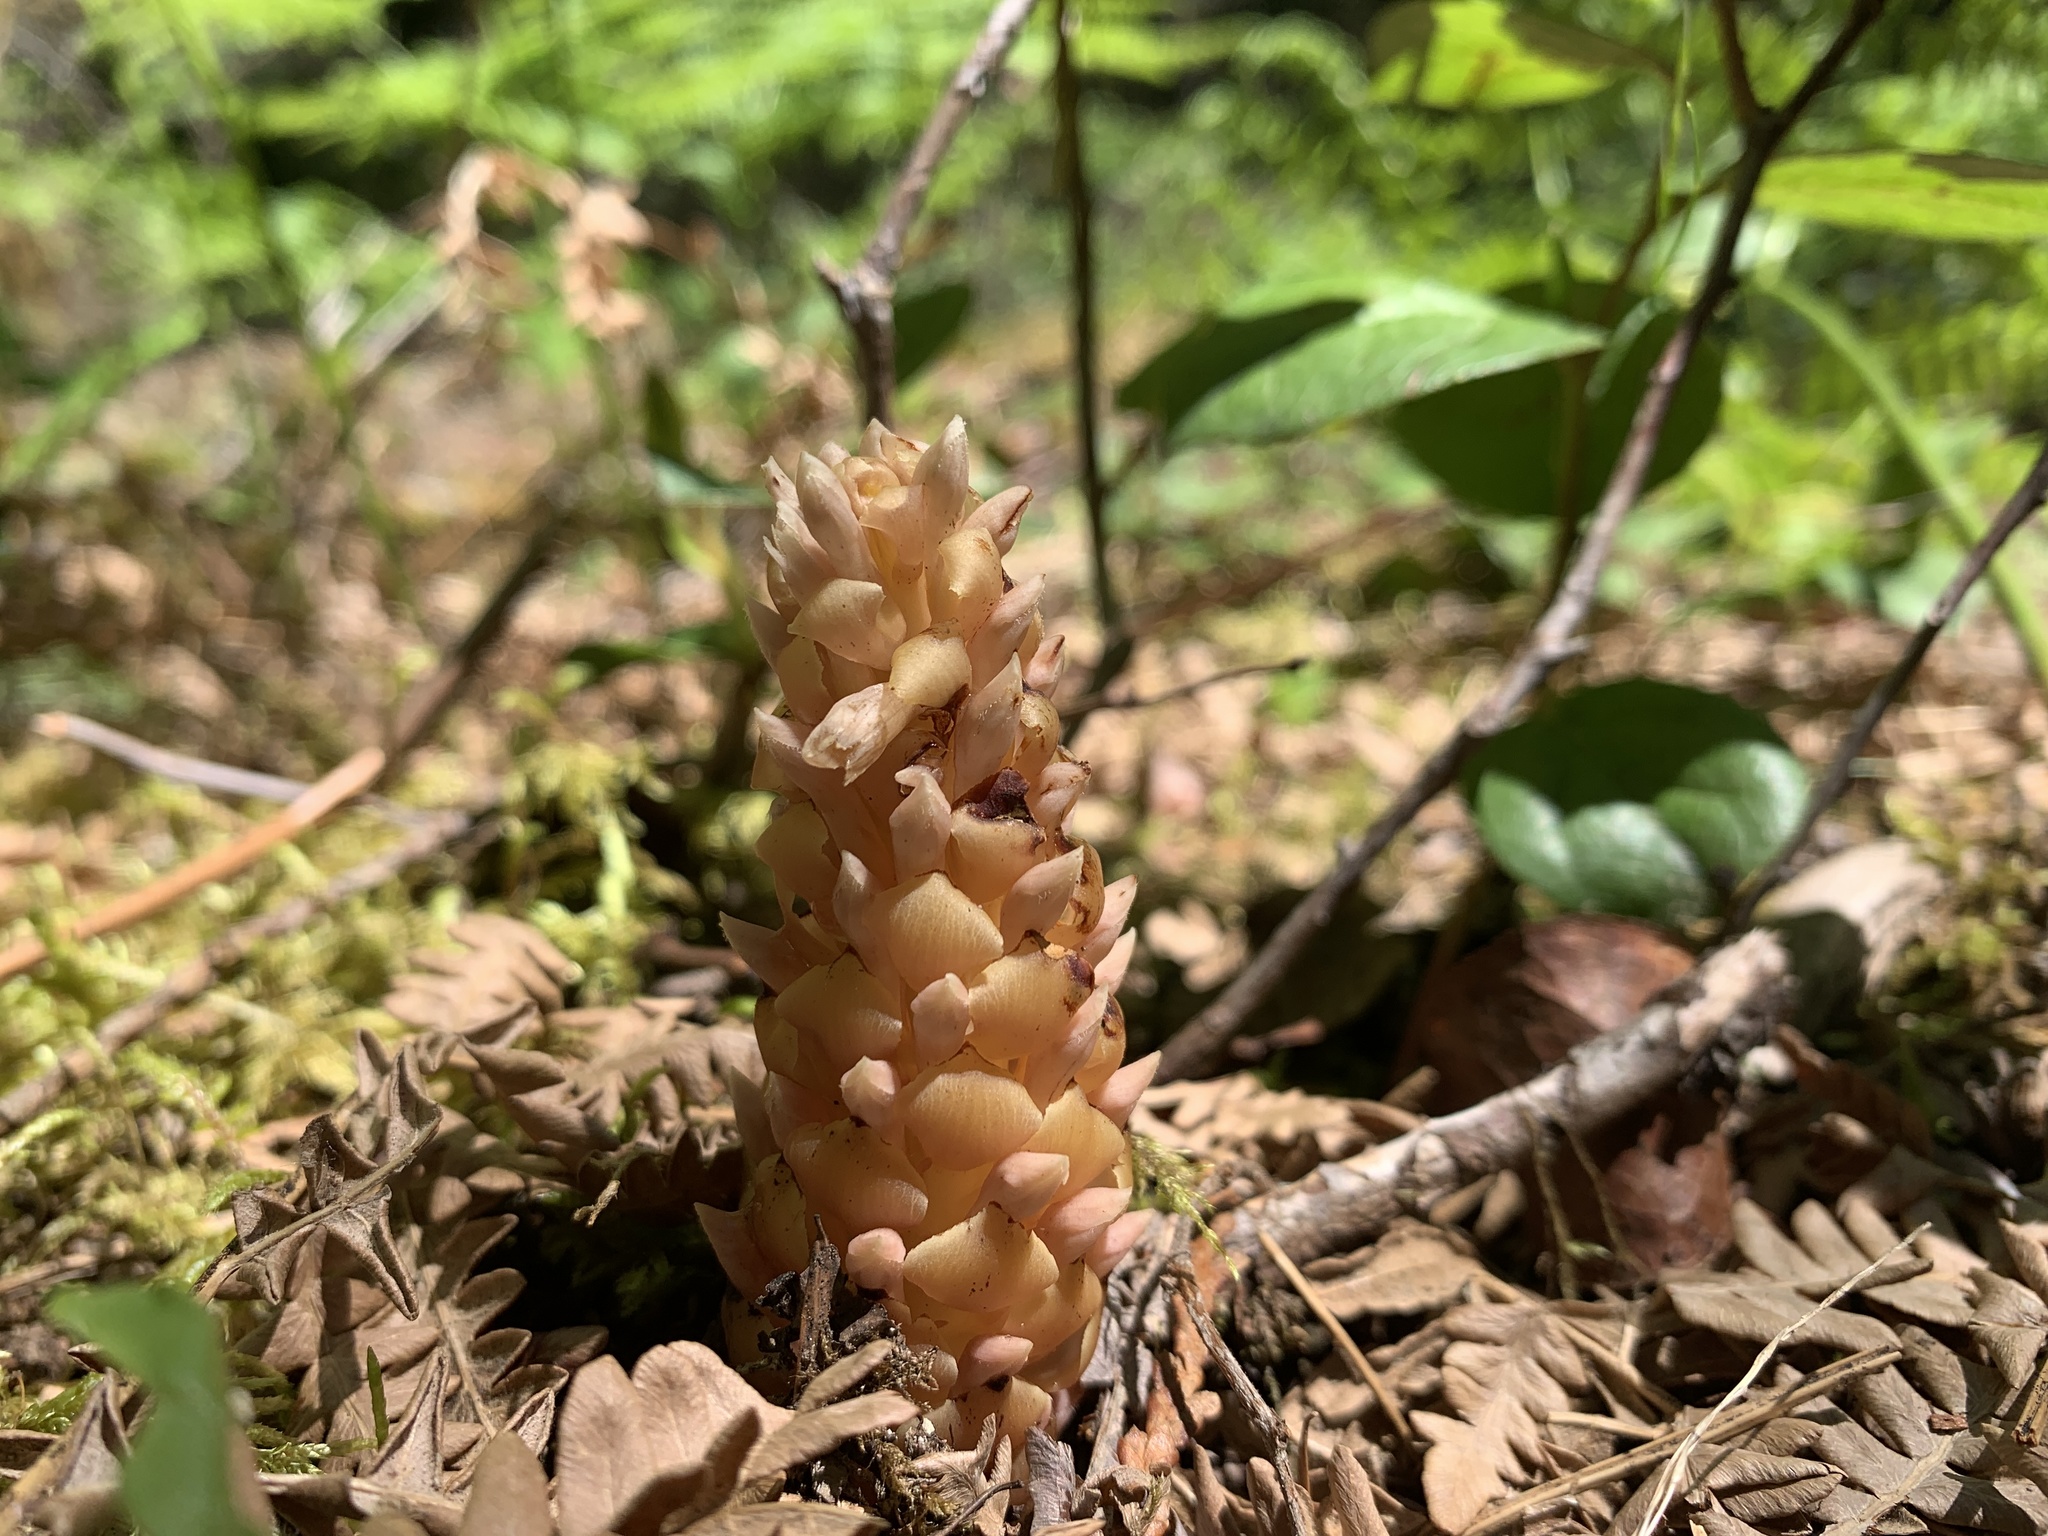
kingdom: Plantae
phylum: Tracheophyta
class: Magnoliopsida
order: Lamiales
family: Orobanchaceae
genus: Kopsiopsis
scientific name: Kopsiopsis hookeri
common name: Hooker's groundcone
